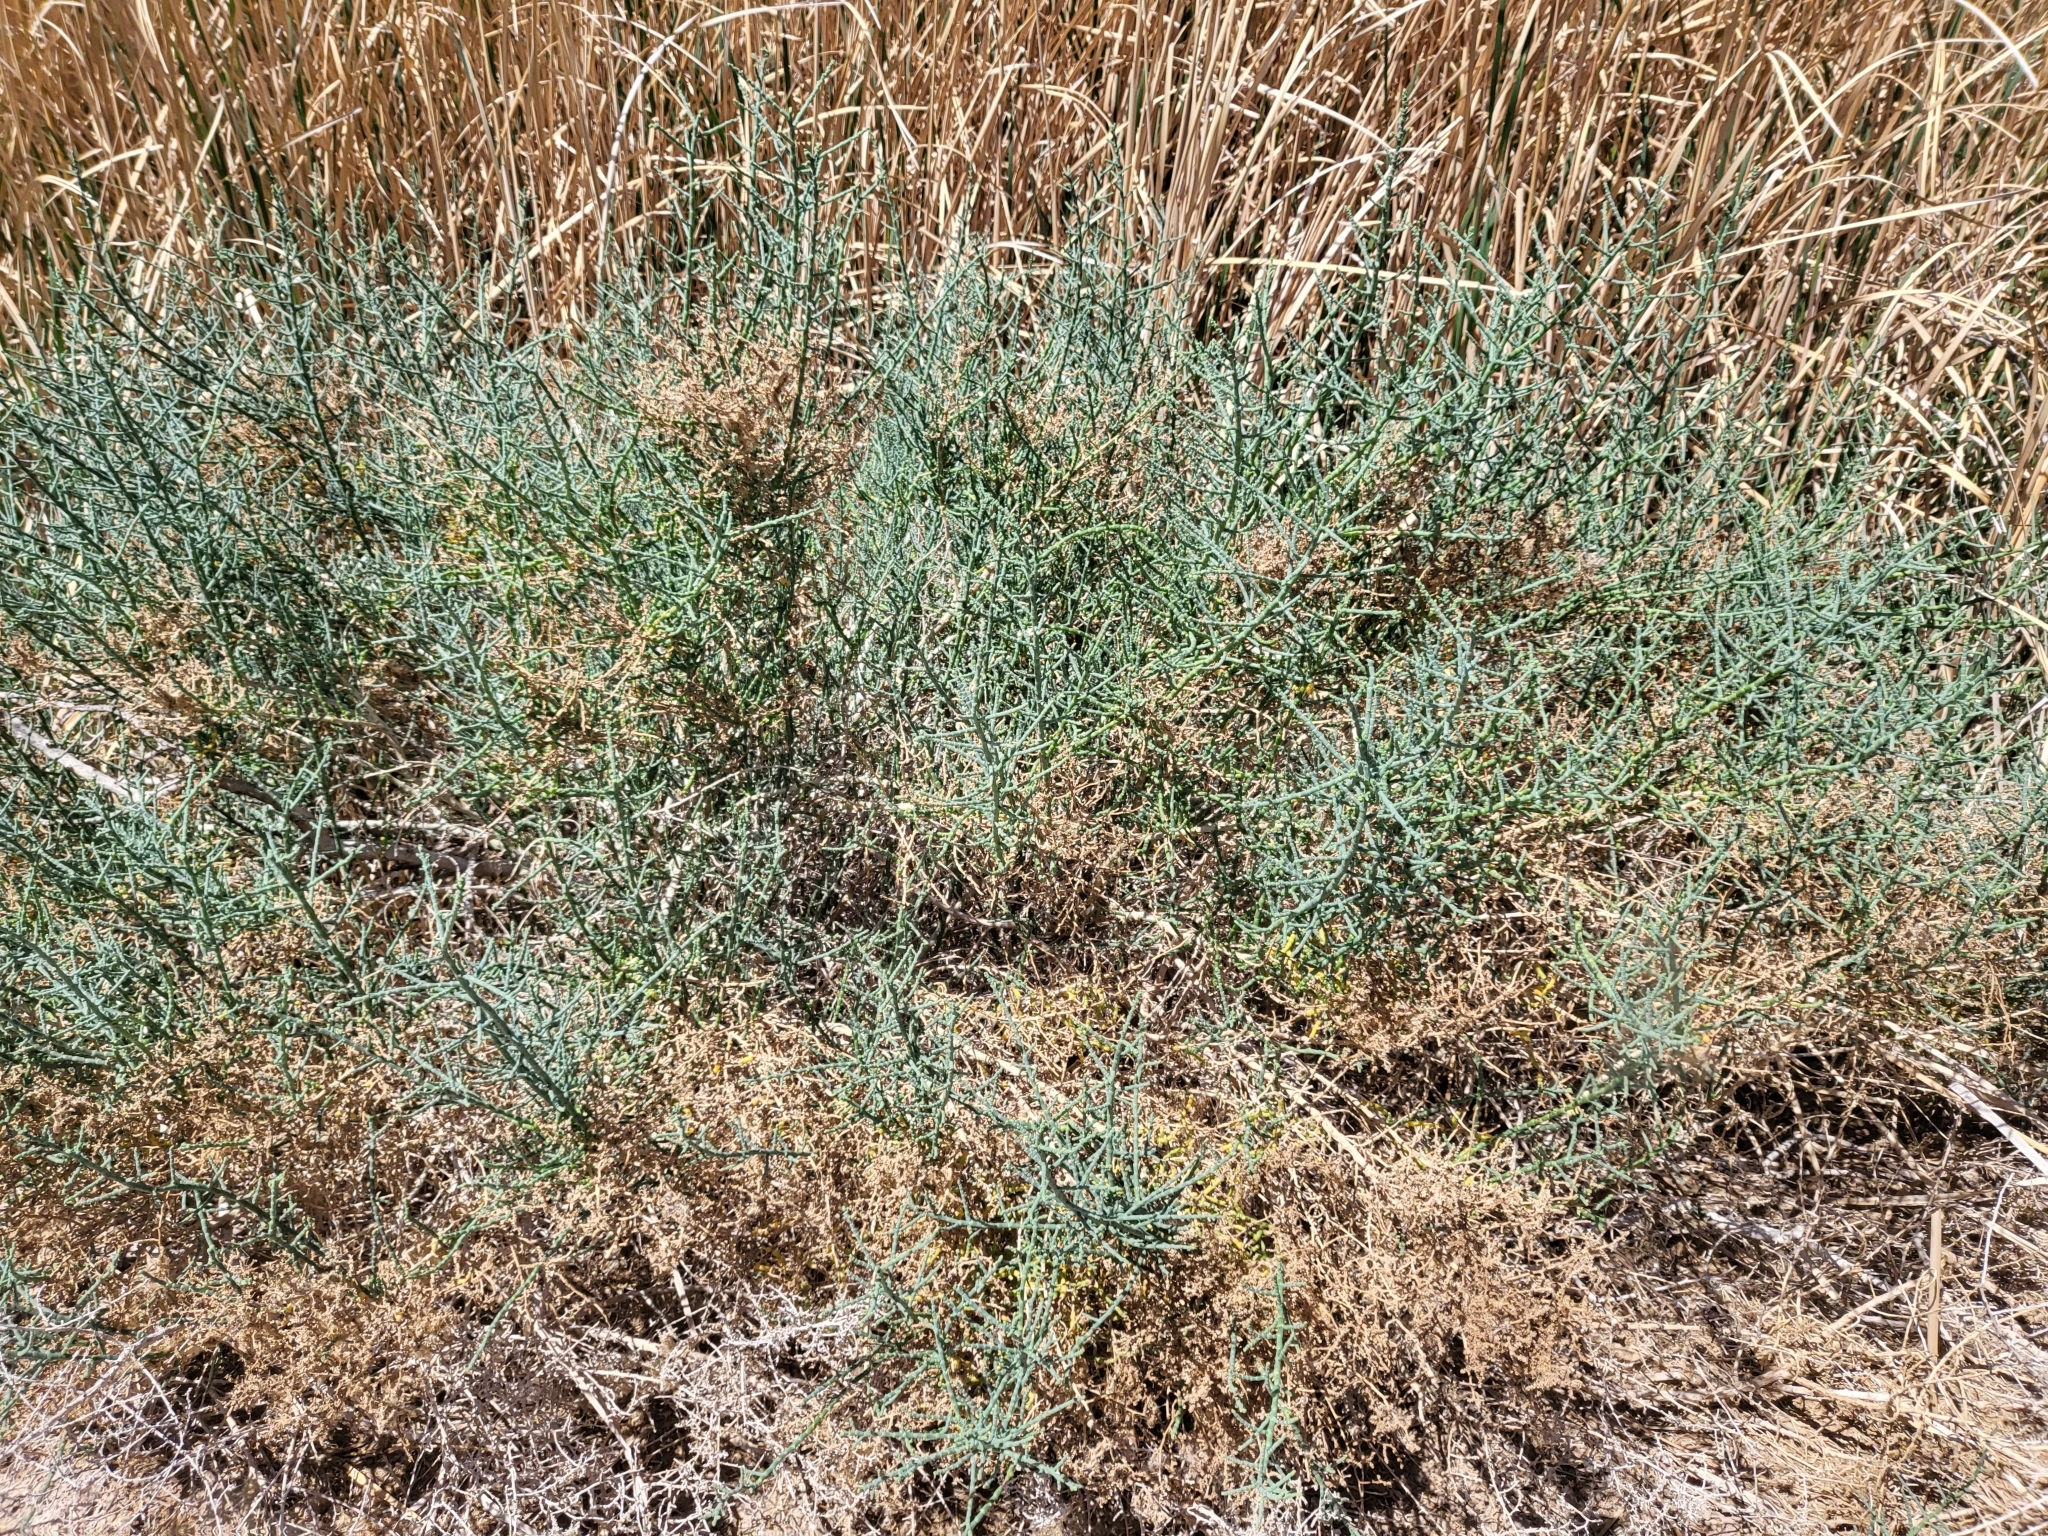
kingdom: Plantae
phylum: Tracheophyta
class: Magnoliopsida
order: Caryophyllales
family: Amaranthaceae
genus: Allenrolfea
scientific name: Allenrolfea occidentalis
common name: Iodine-bush
